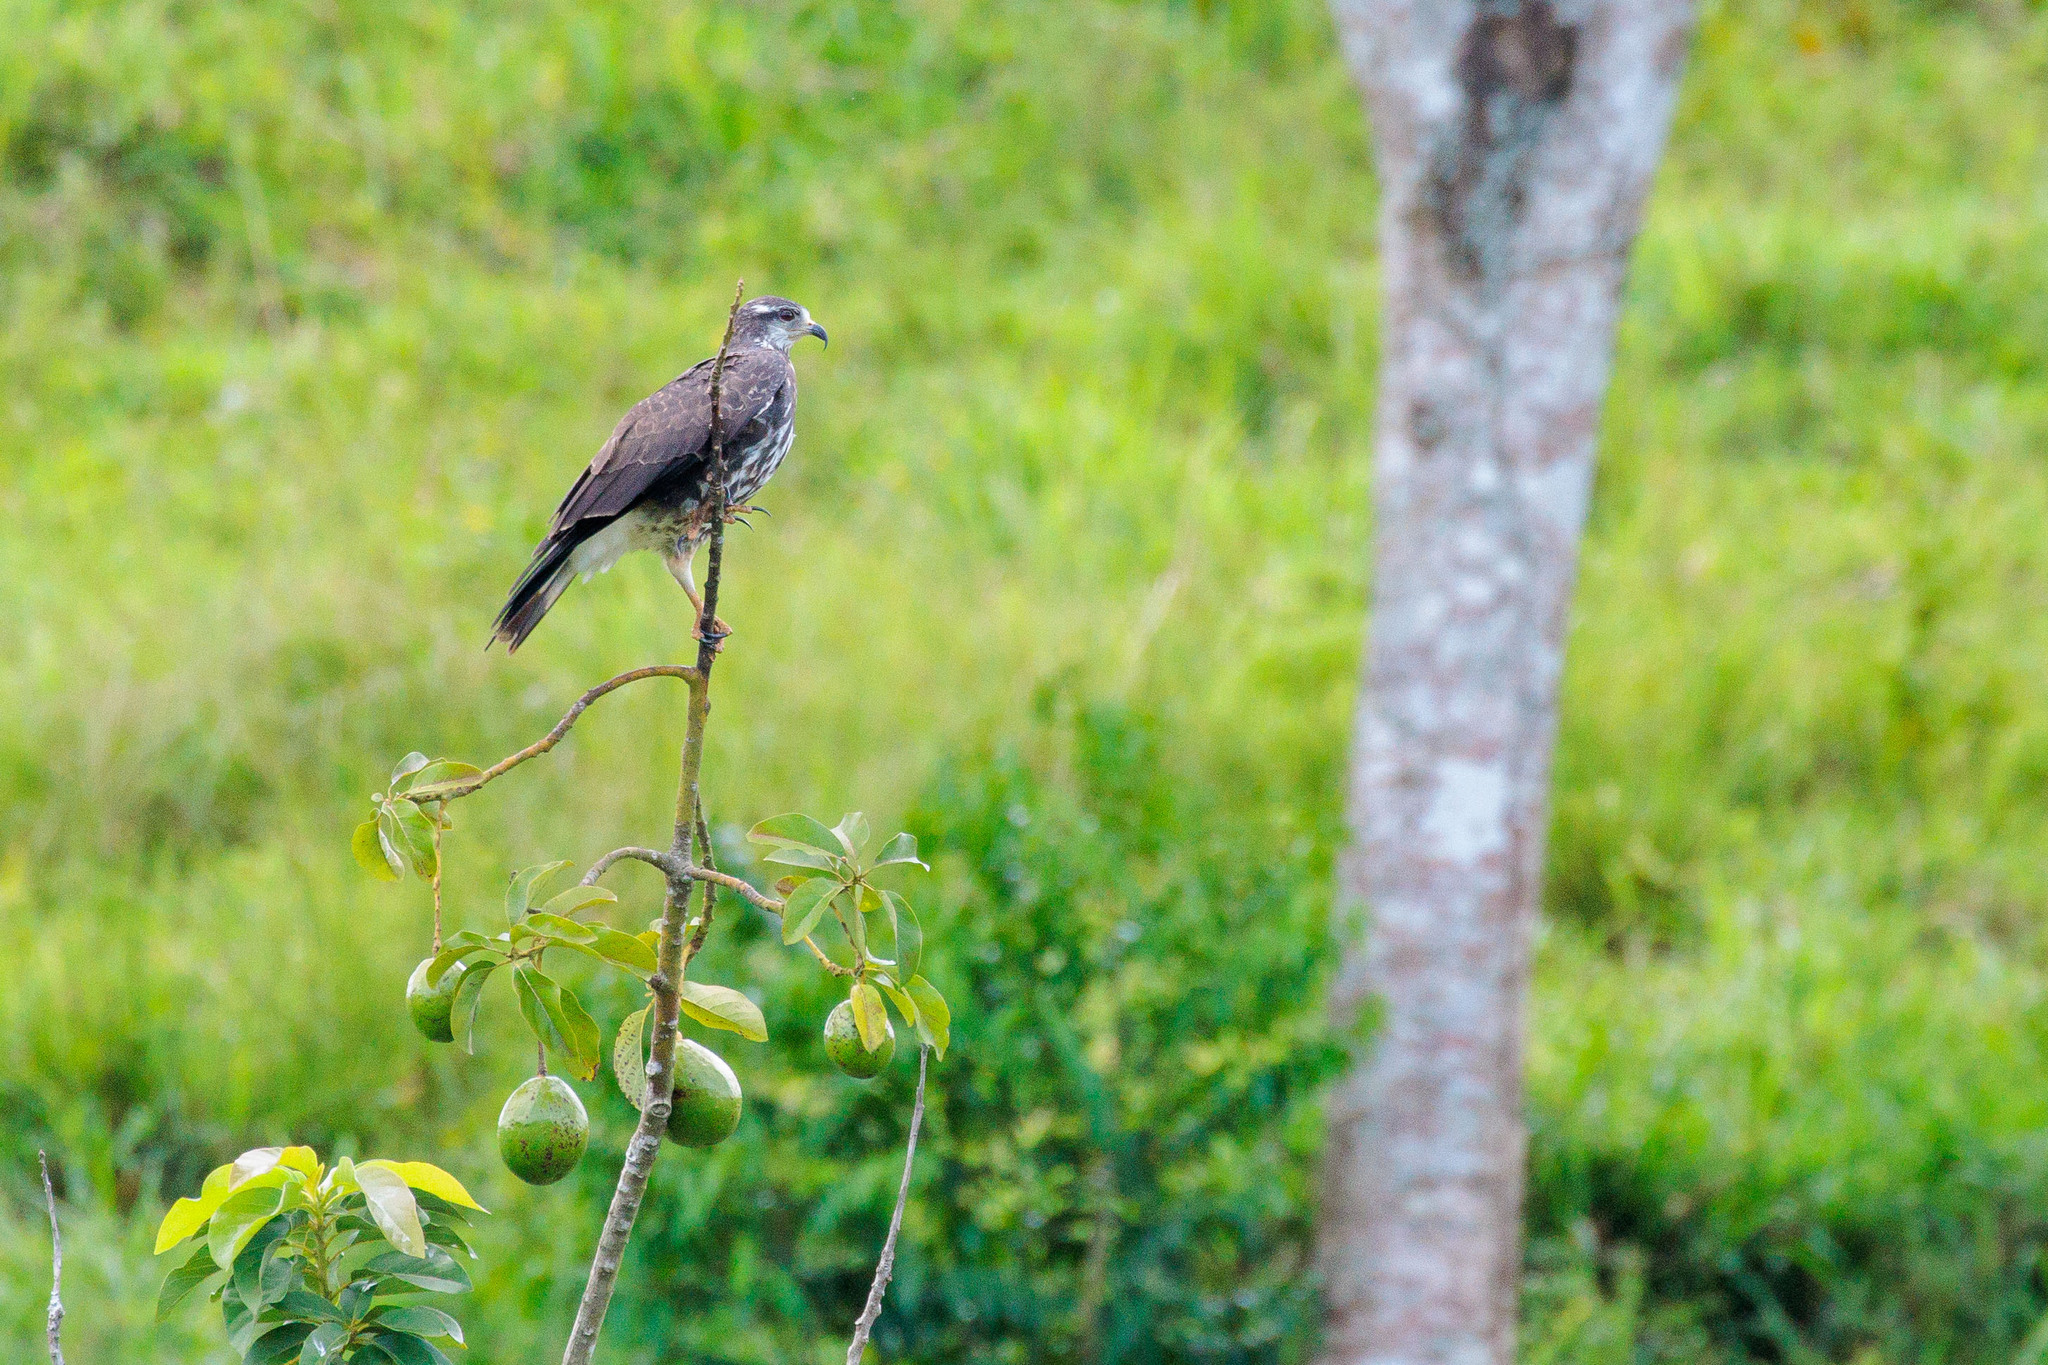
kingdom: Animalia
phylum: Chordata
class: Aves
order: Accipitriformes
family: Accipitridae
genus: Rostrhamus
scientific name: Rostrhamus sociabilis
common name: Snail kite
